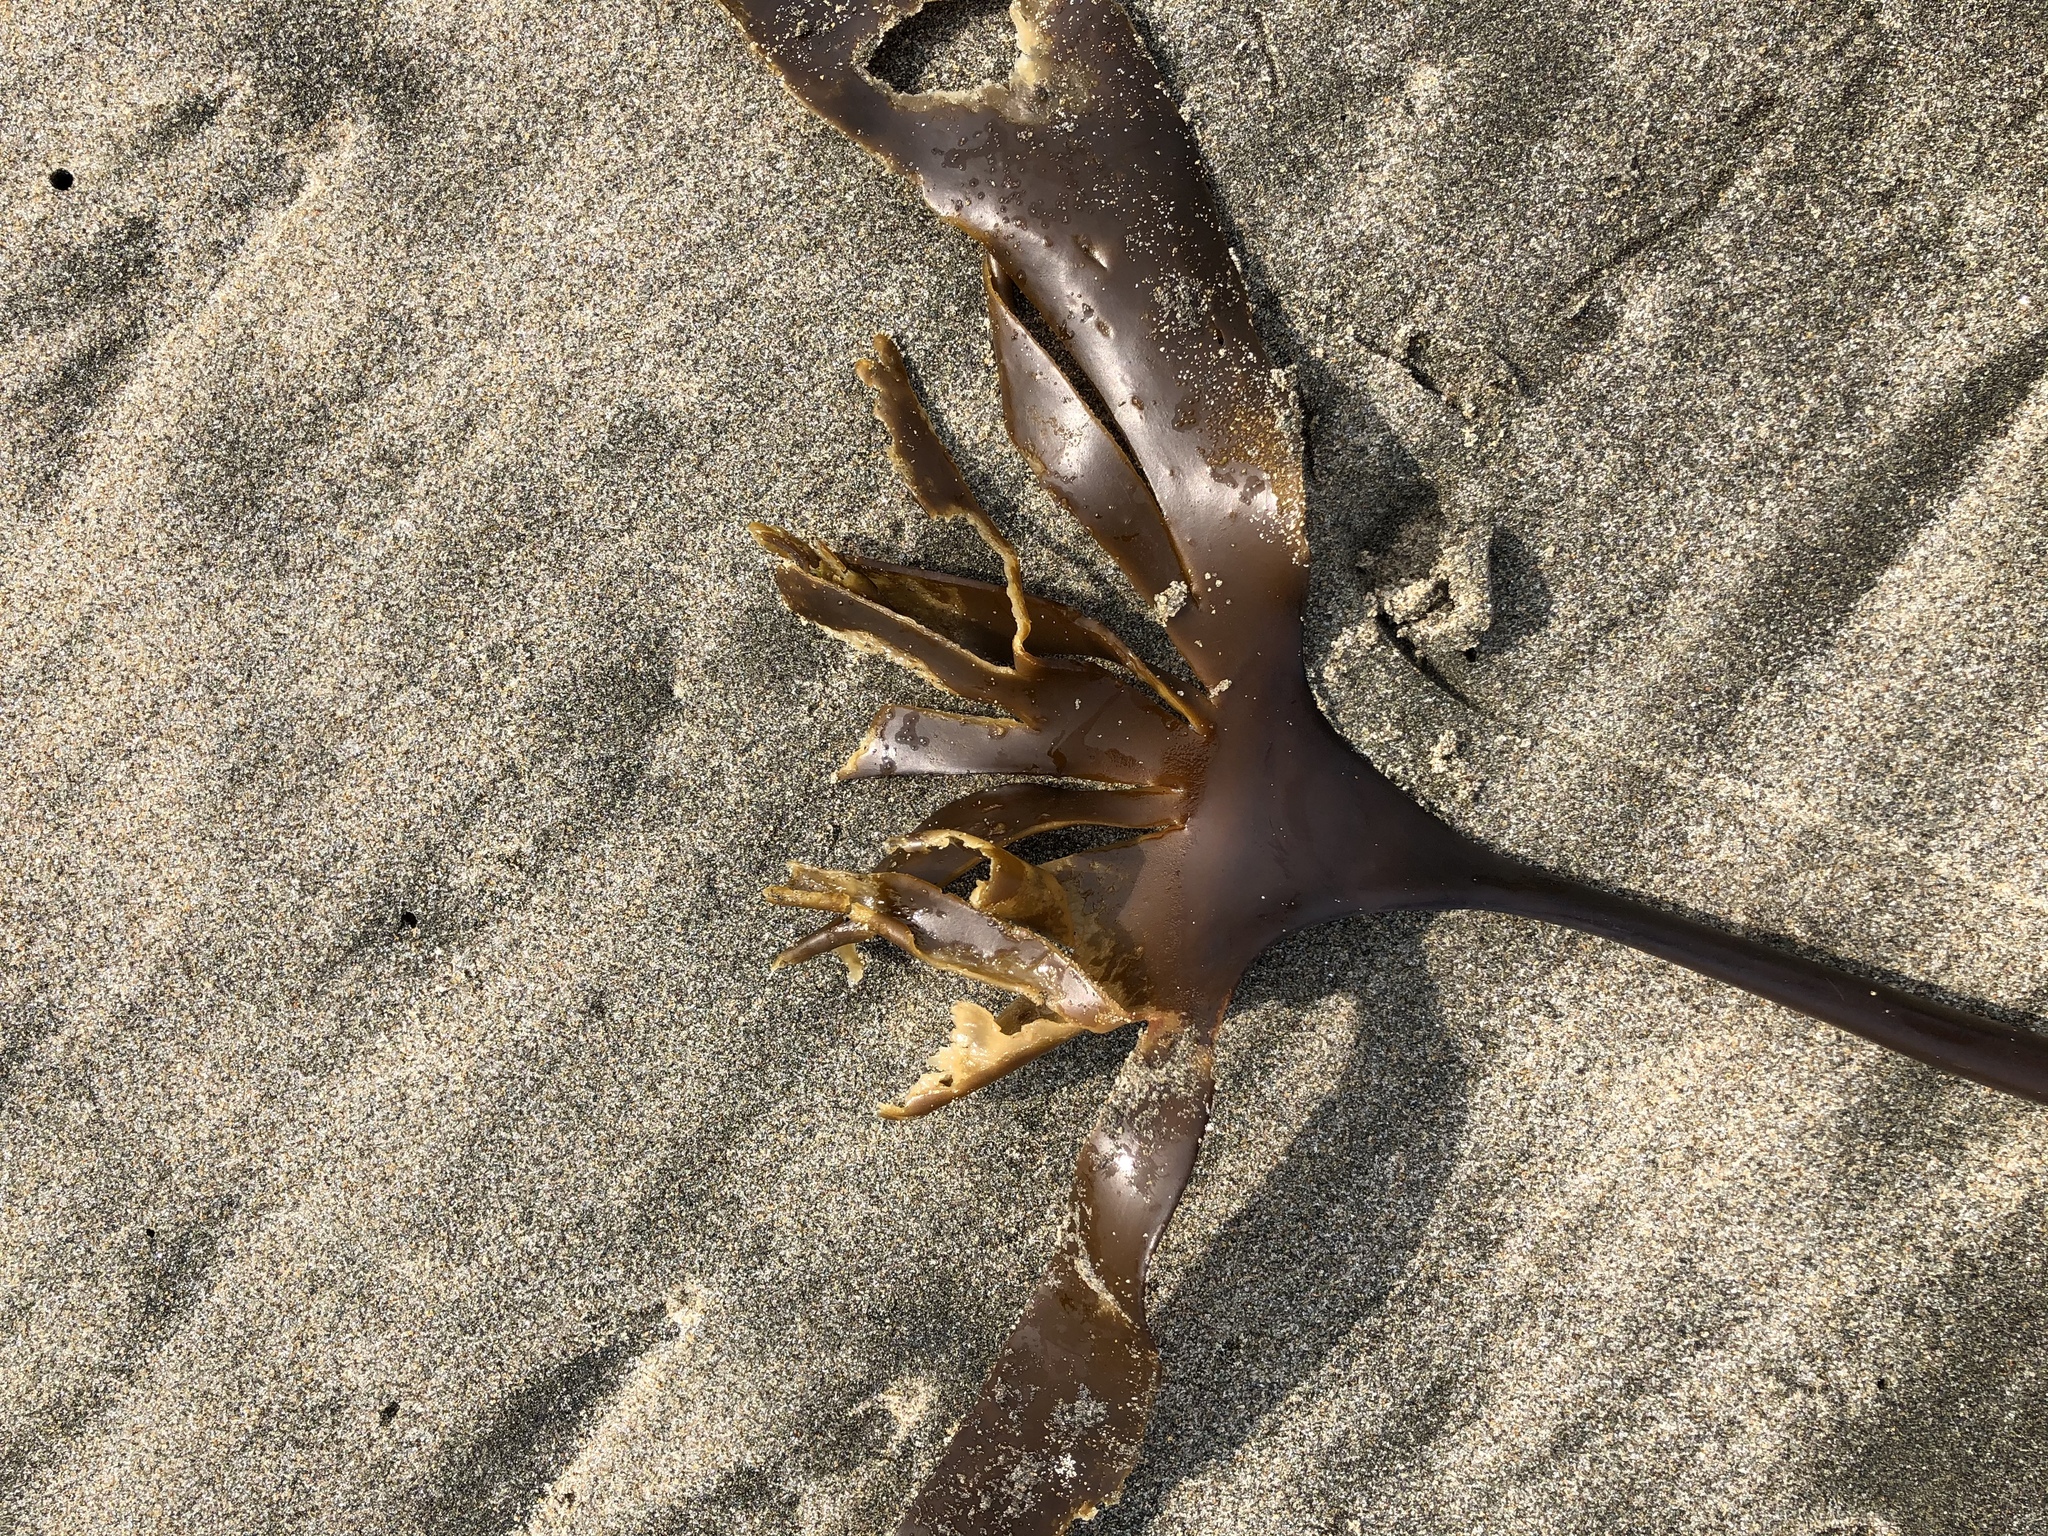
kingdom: Chromista
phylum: Ochrophyta
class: Phaeophyceae
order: Laminariales
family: Laminariaceae
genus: Laminaria
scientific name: Laminaria setchellii
